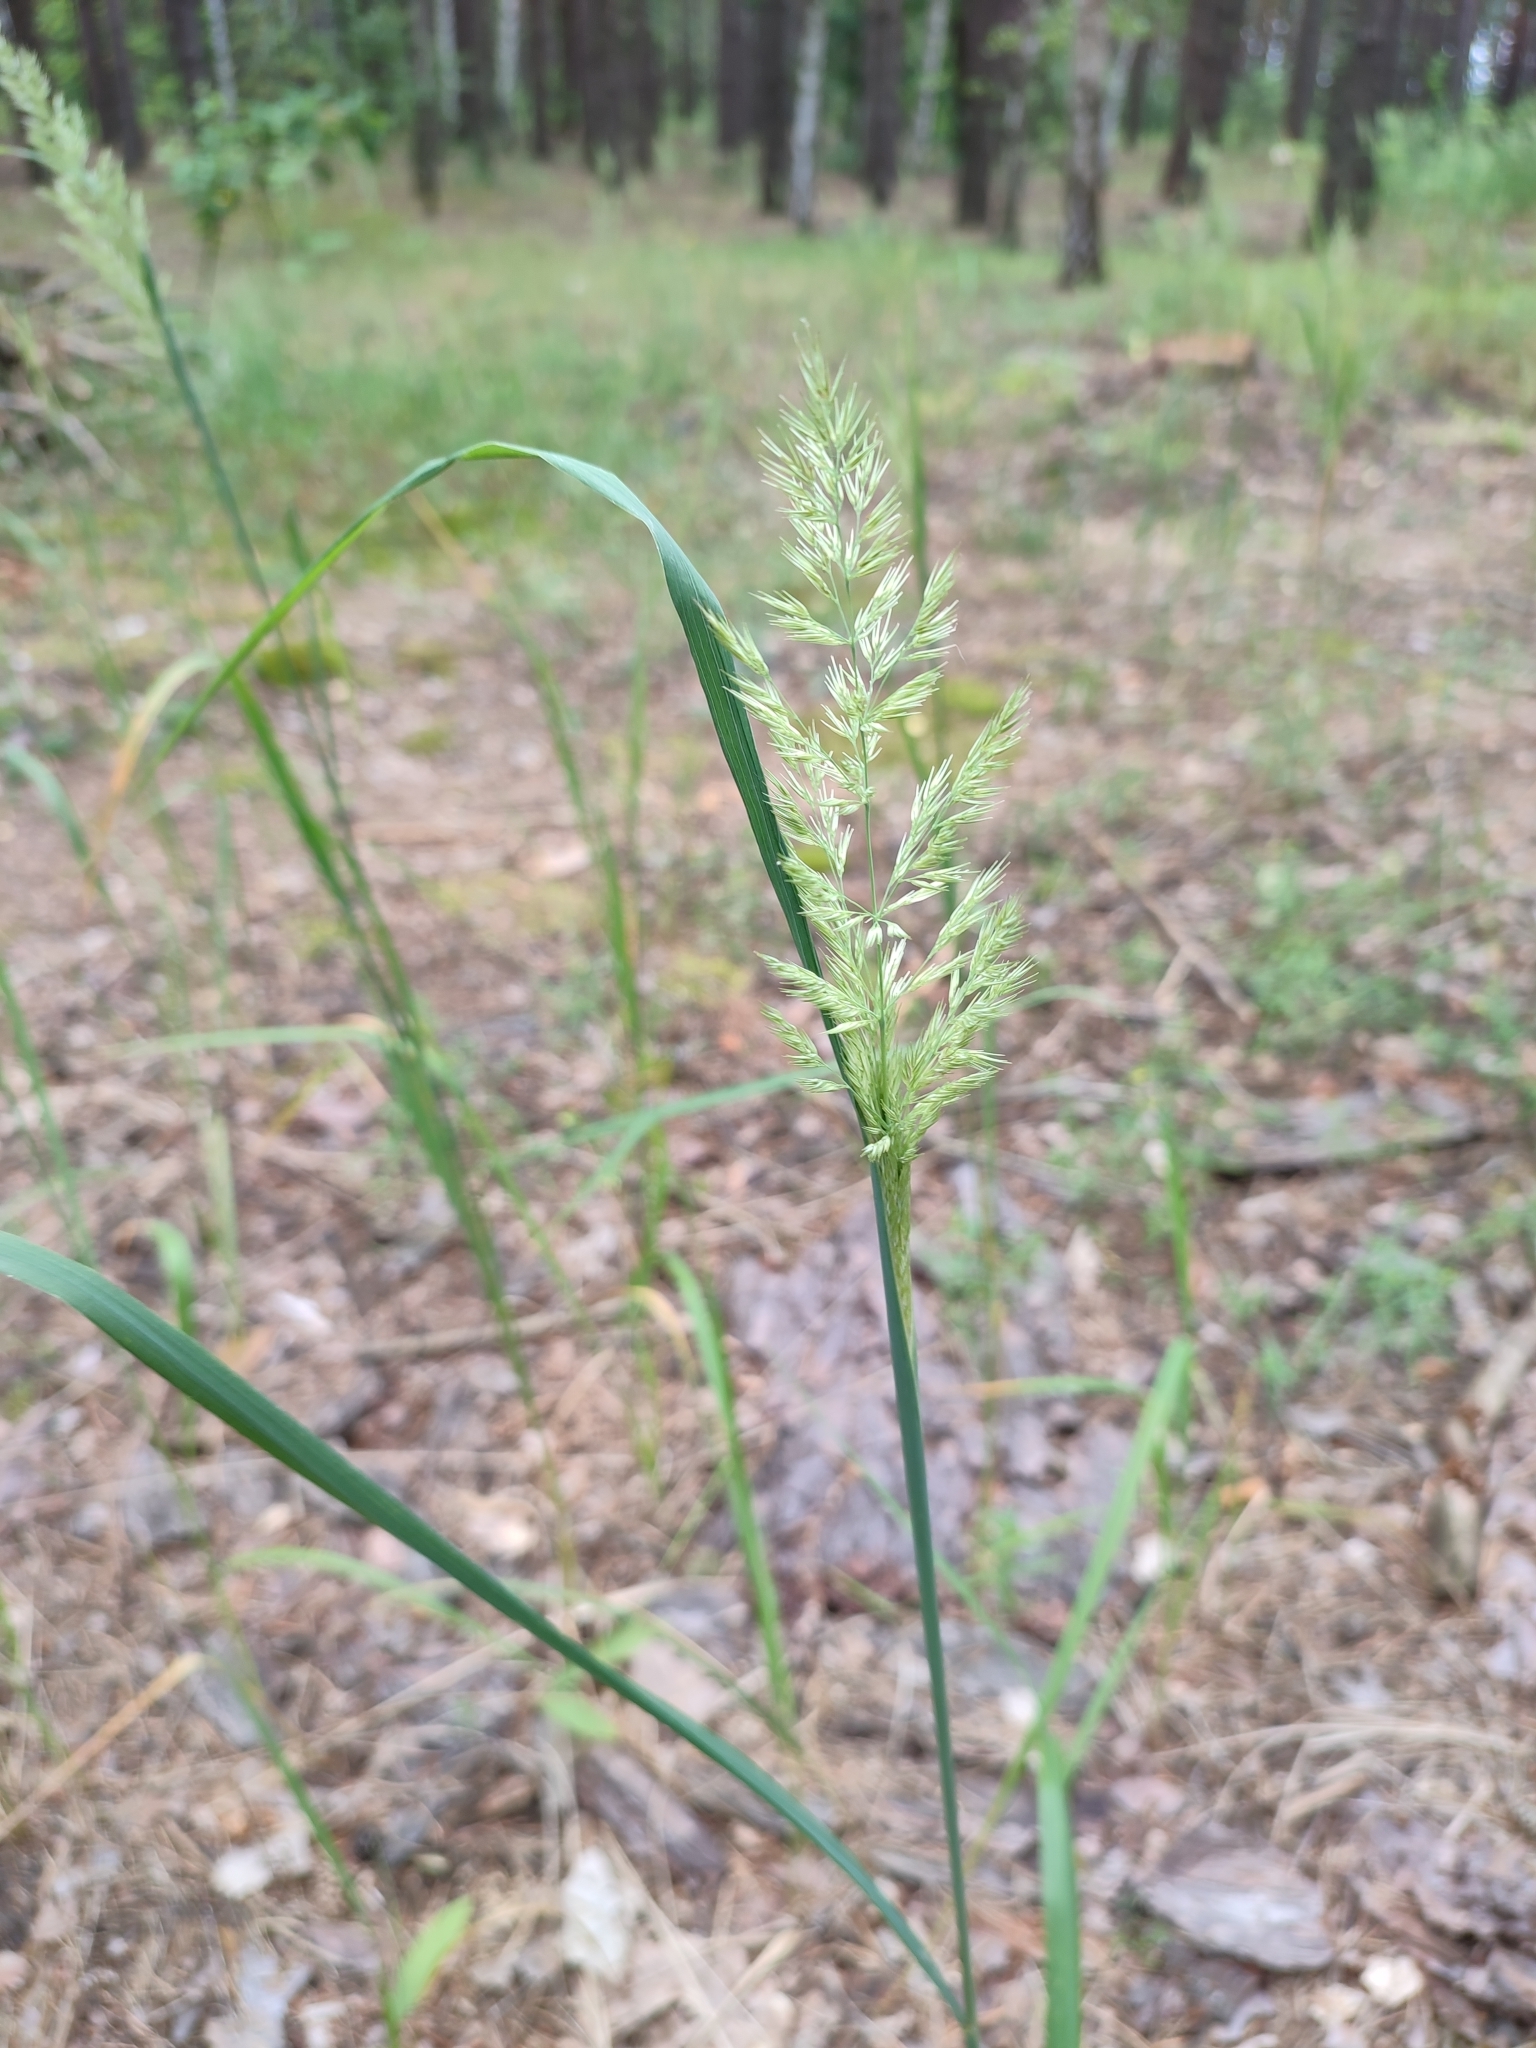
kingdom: Plantae
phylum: Tracheophyta
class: Liliopsida
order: Poales
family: Poaceae
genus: Calamagrostis
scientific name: Calamagrostis epigejos
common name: Wood small-reed
